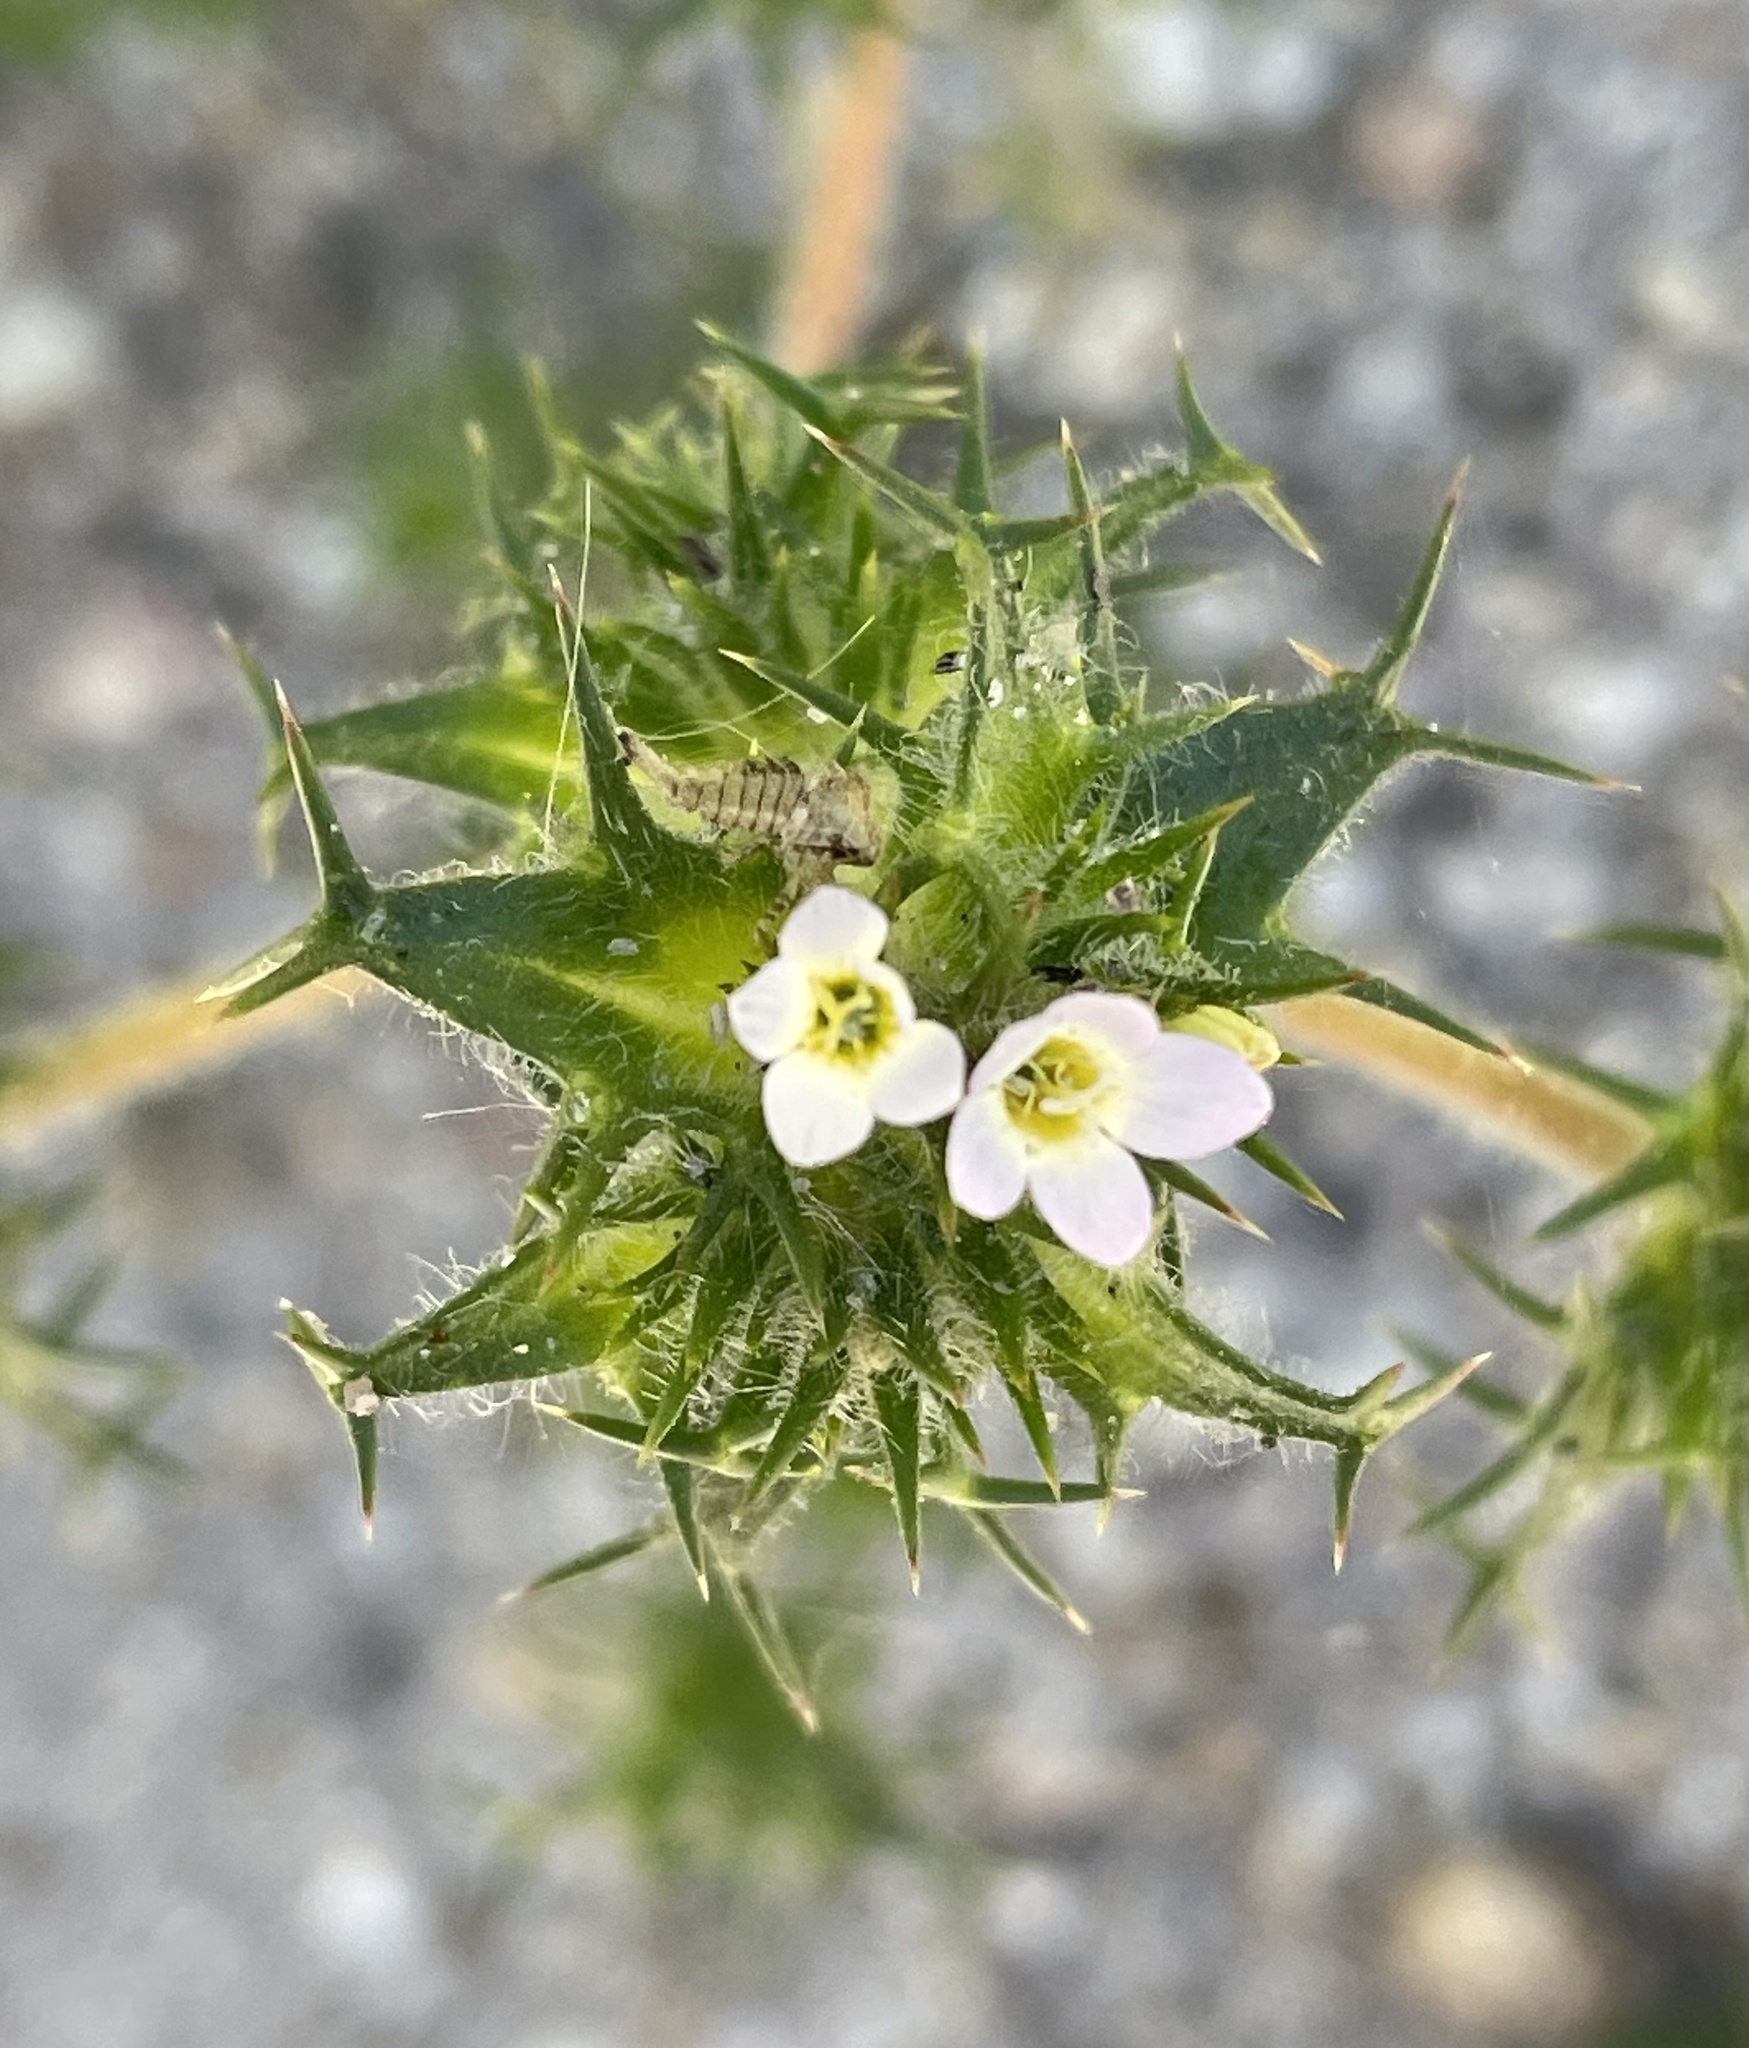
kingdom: Plantae
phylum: Tracheophyta
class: Magnoliopsida
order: Ericales
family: Polemoniaceae
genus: Navarretia
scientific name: Navarretia hamata
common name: Hooked navarretia
